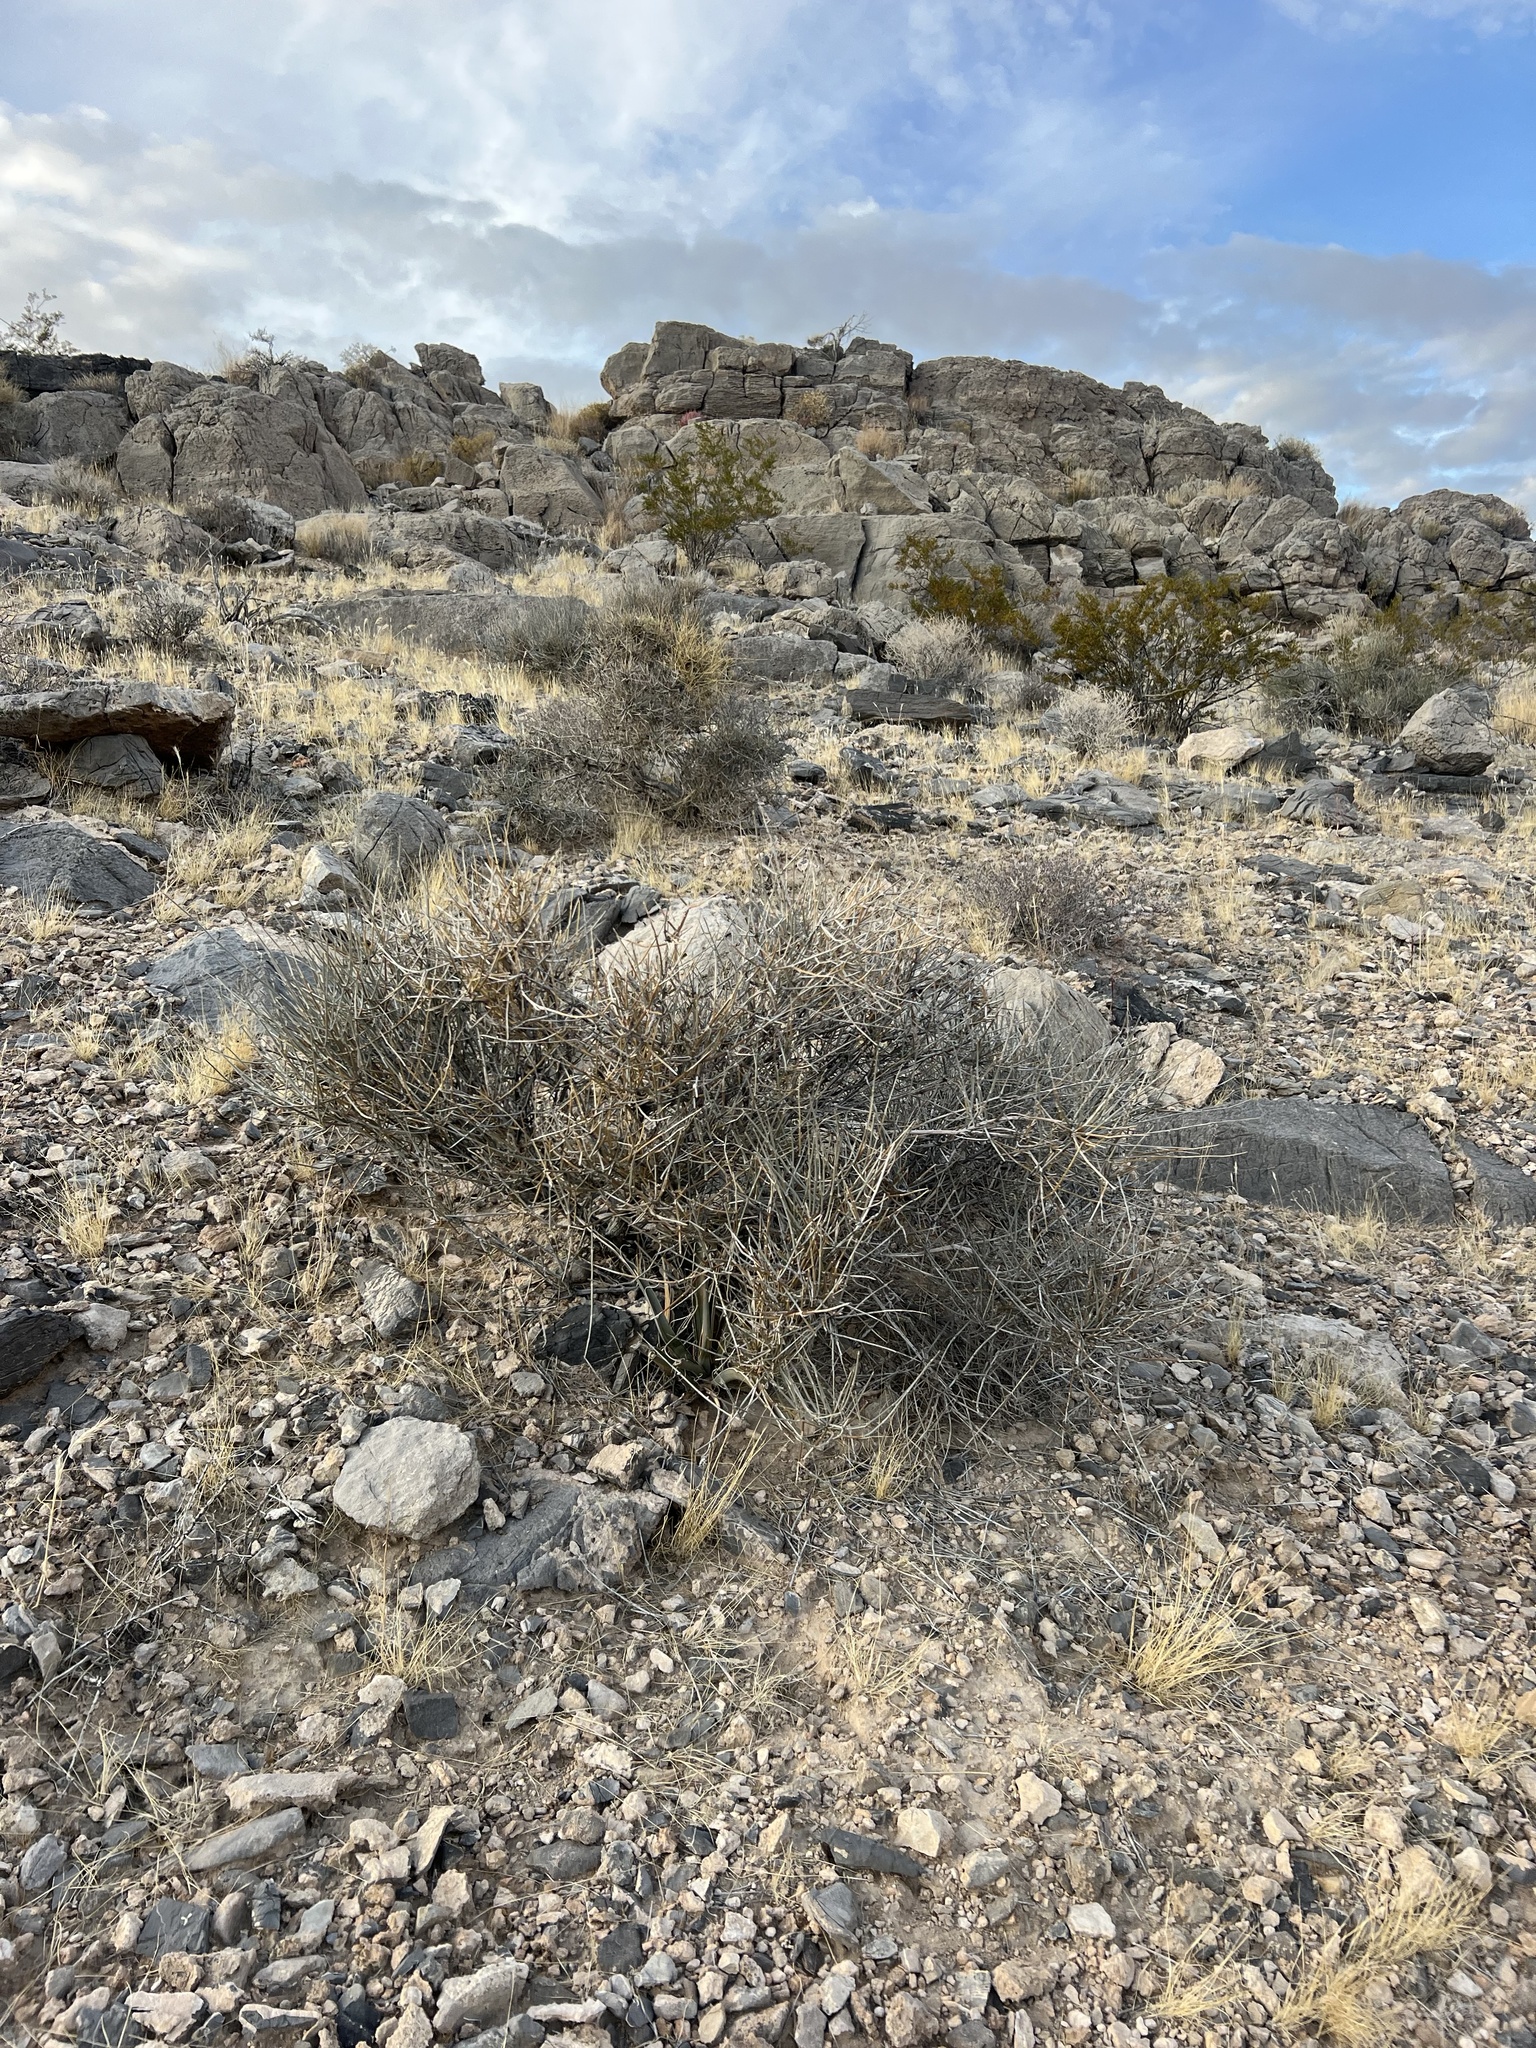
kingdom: Plantae
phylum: Tracheophyta
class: Gnetopsida
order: Ephedrales
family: Ephedraceae
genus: Ephedra
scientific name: Ephedra nevadensis
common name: Gray ephedra
